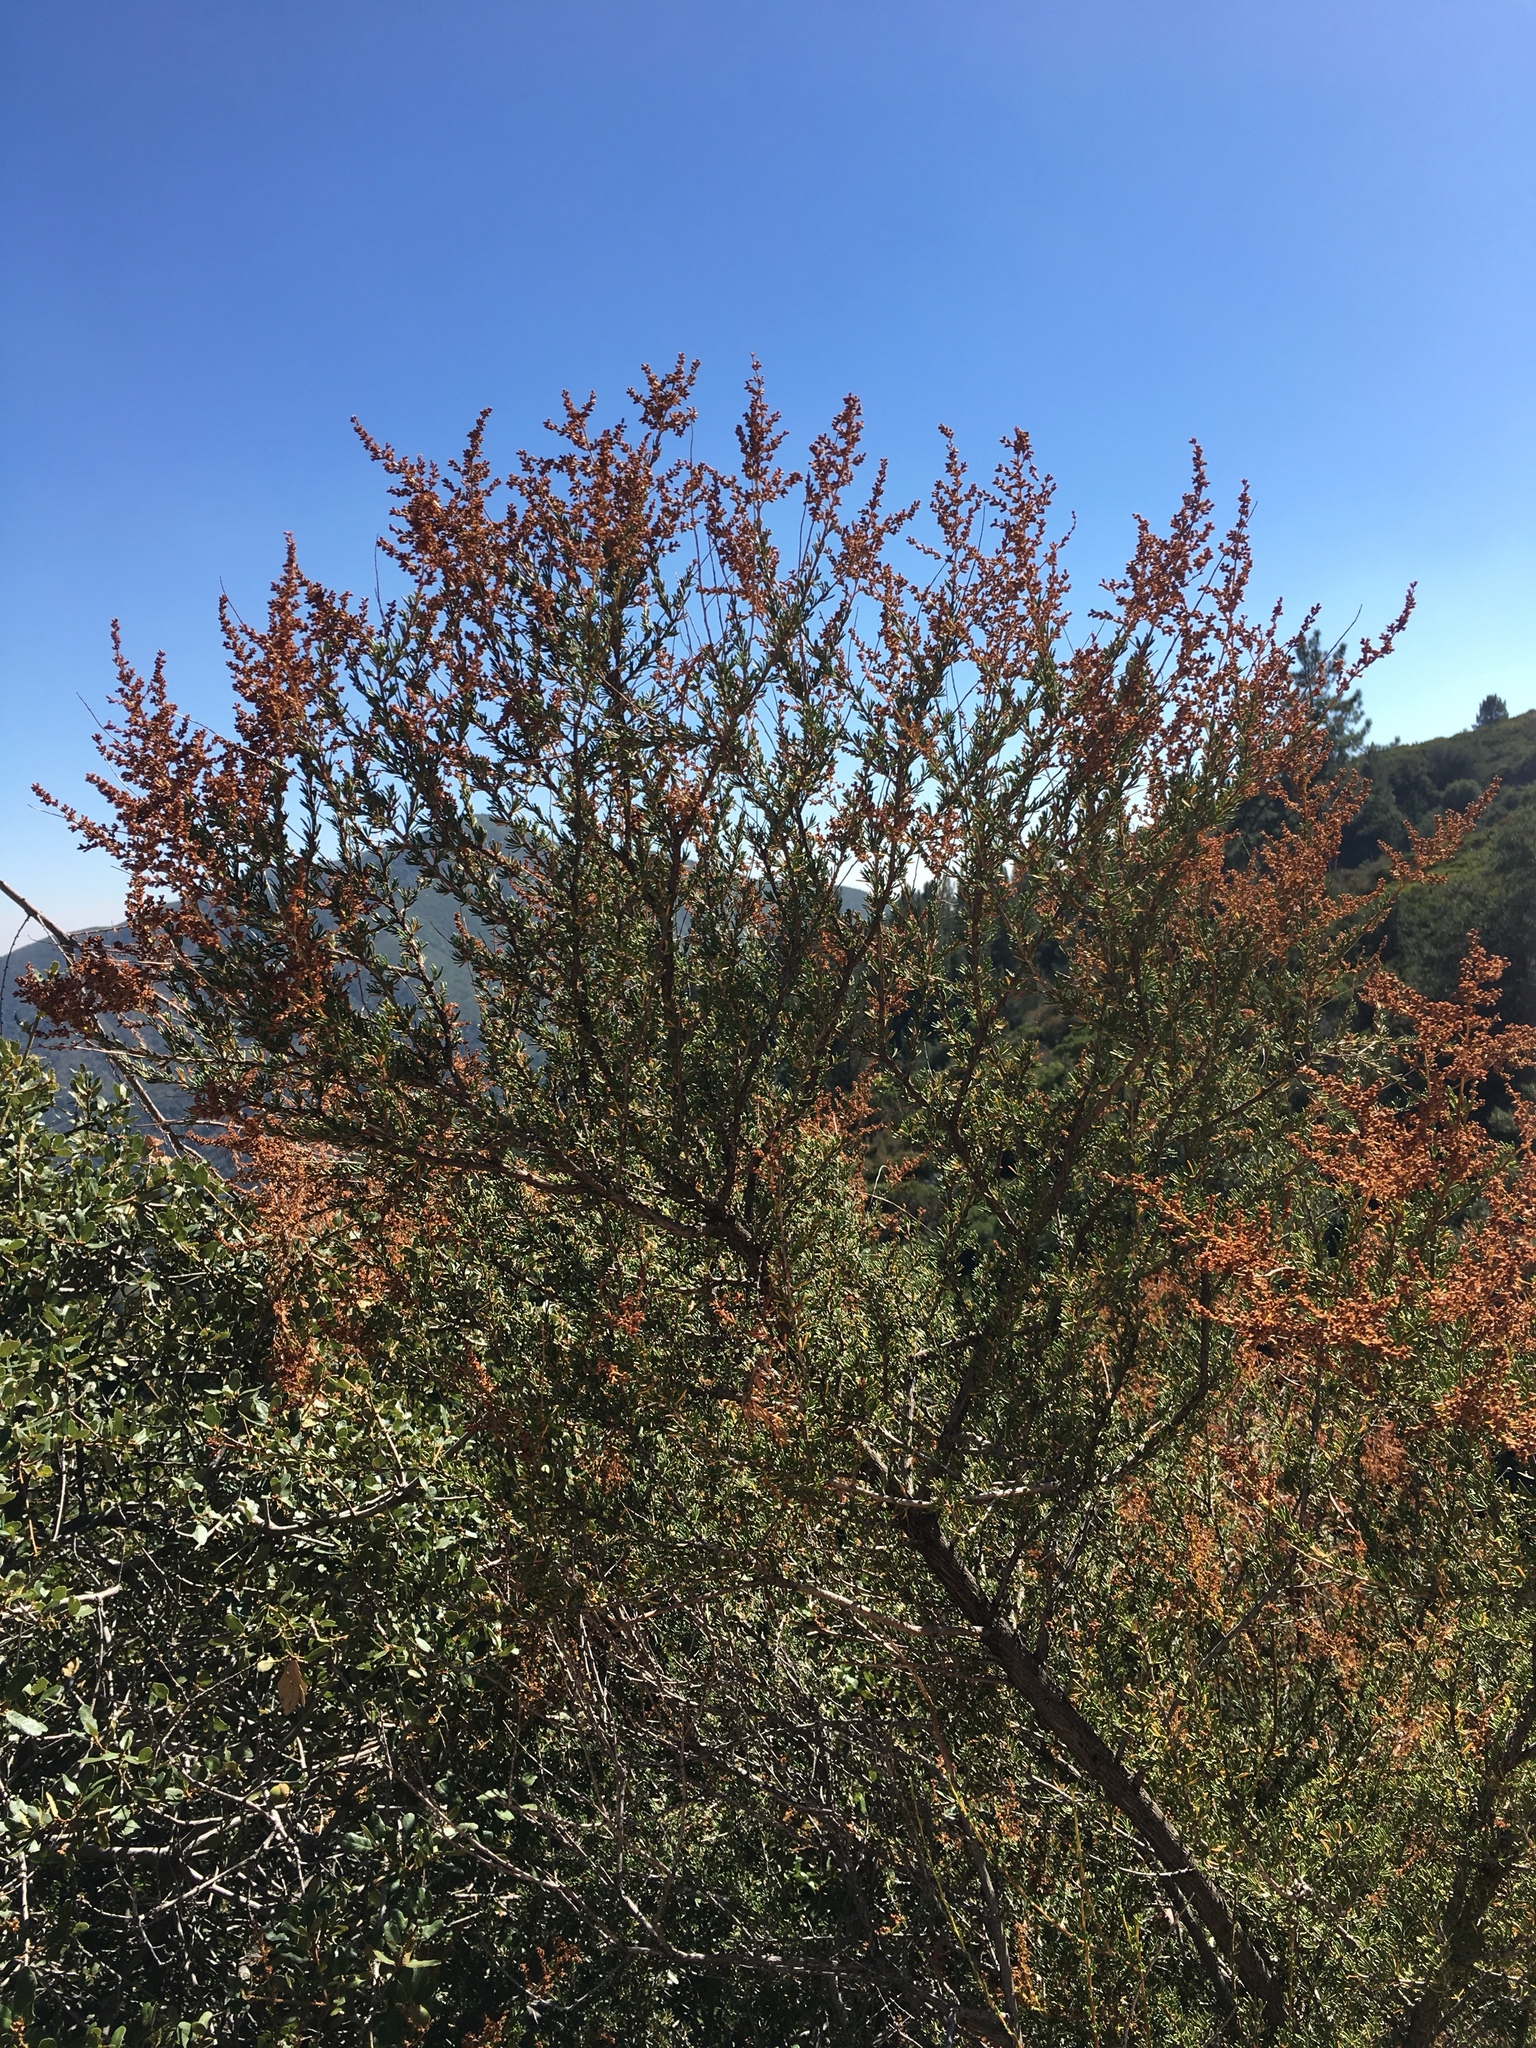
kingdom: Plantae
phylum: Tracheophyta
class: Magnoliopsida
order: Rosales
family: Rosaceae
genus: Adenostoma
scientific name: Adenostoma fasciculatum
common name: Chamise
